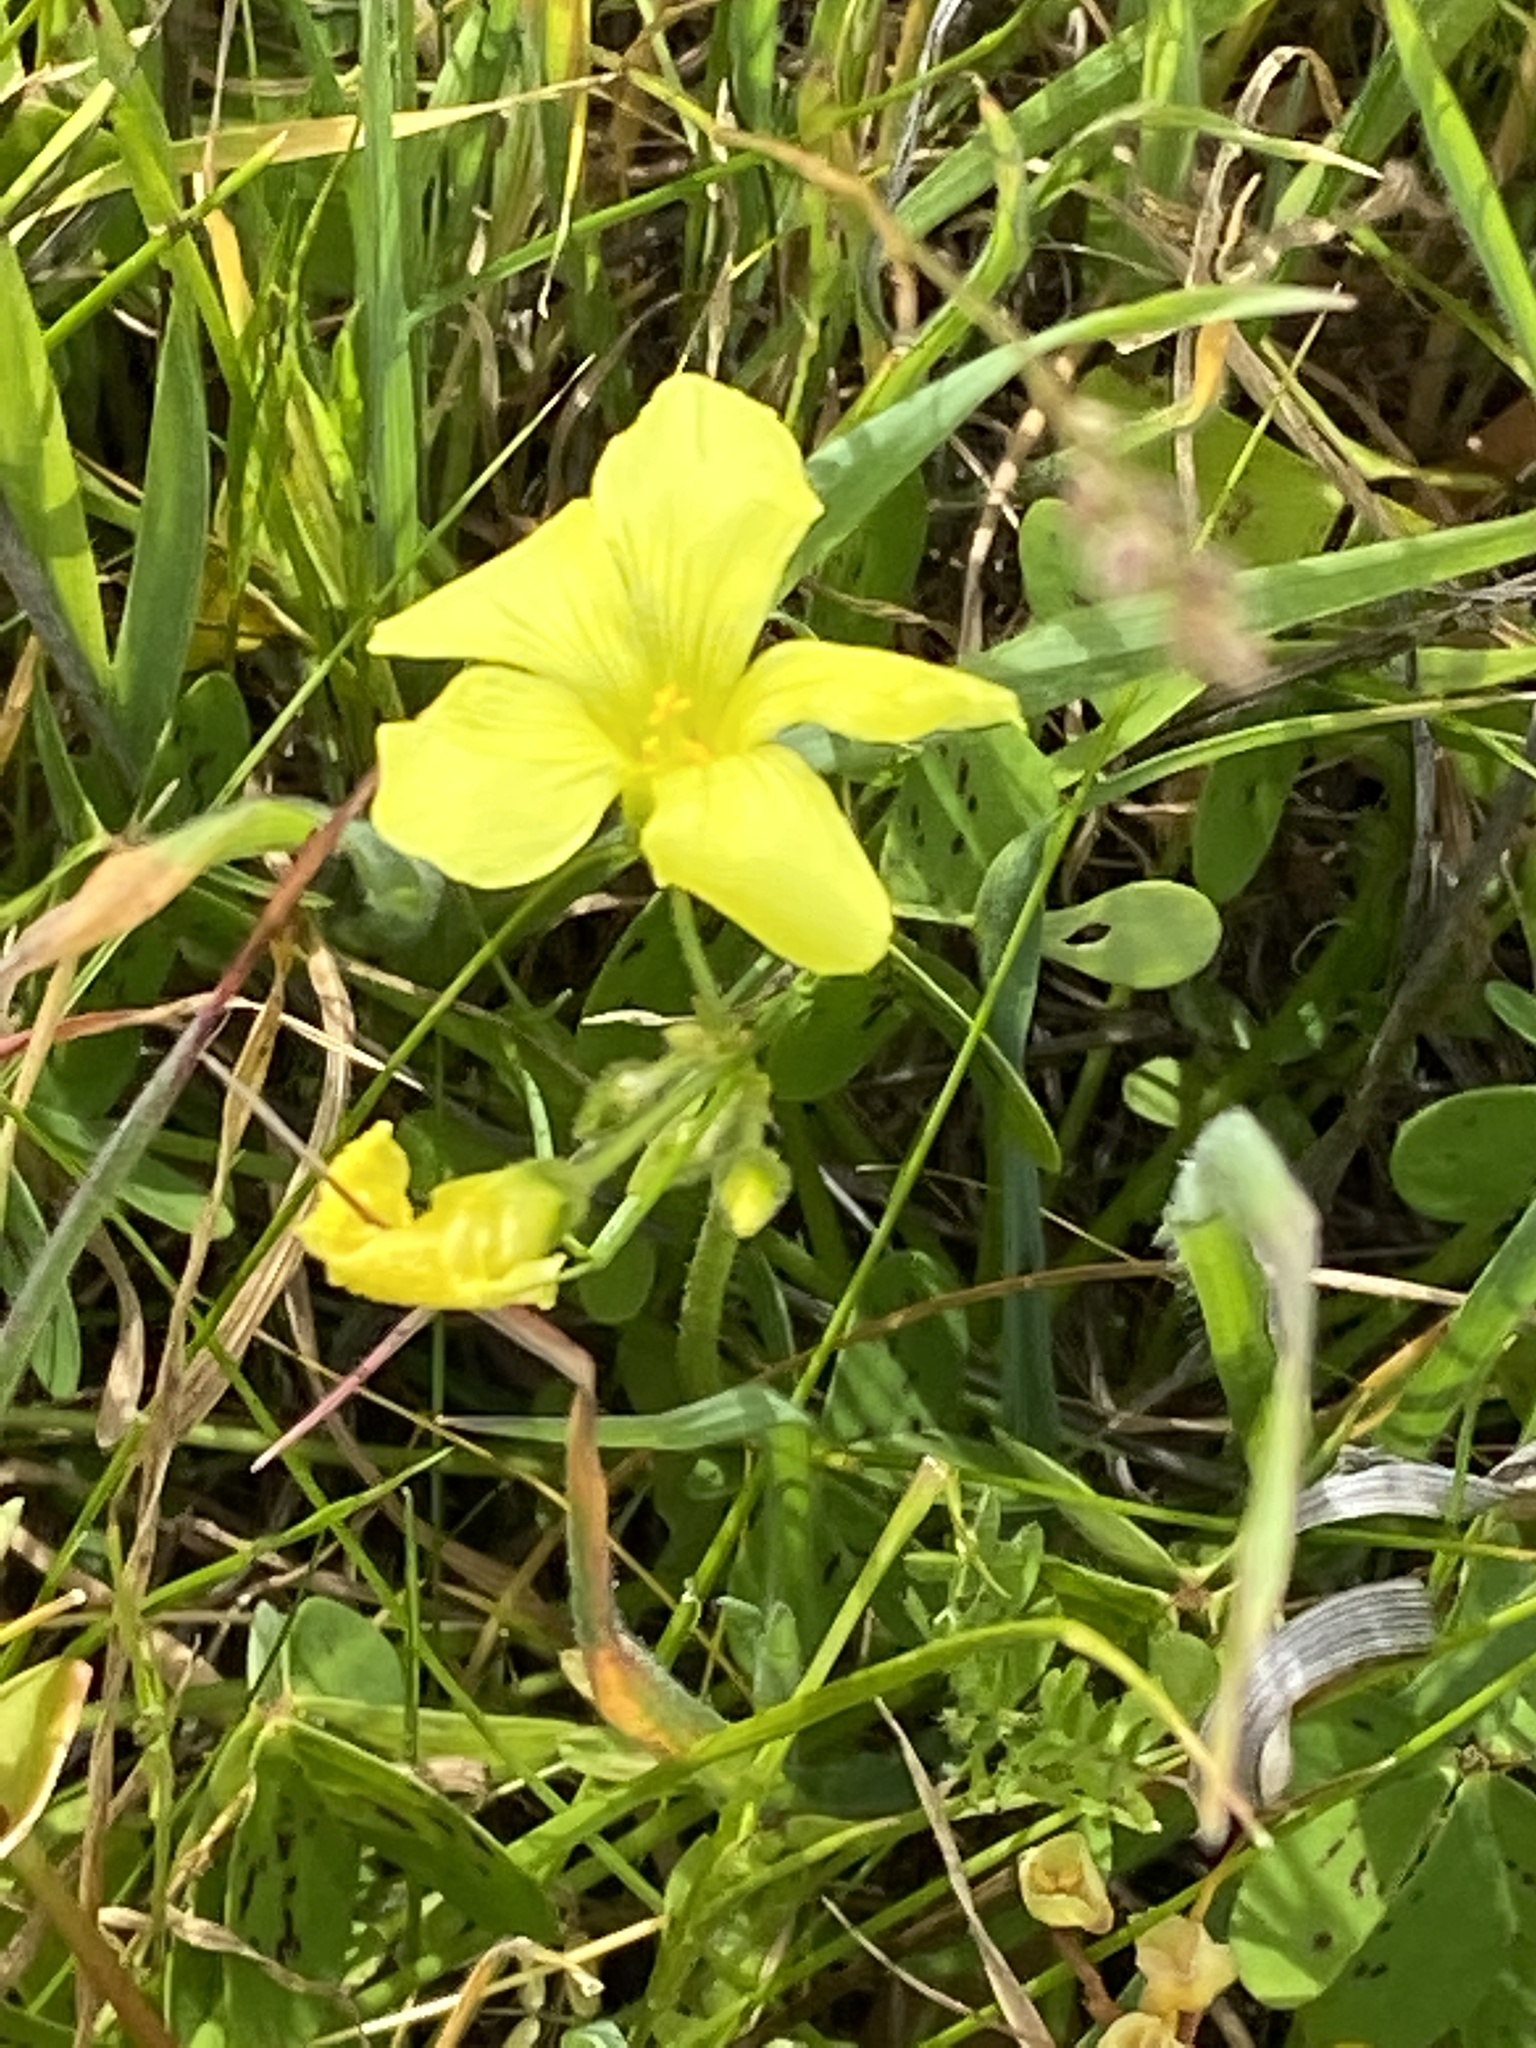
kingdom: Plantae
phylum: Tracheophyta
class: Magnoliopsida
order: Oxalidales
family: Oxalidaceae
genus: Oxalis
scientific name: Oxalis pes-caprae
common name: Bermuda-buttercup
